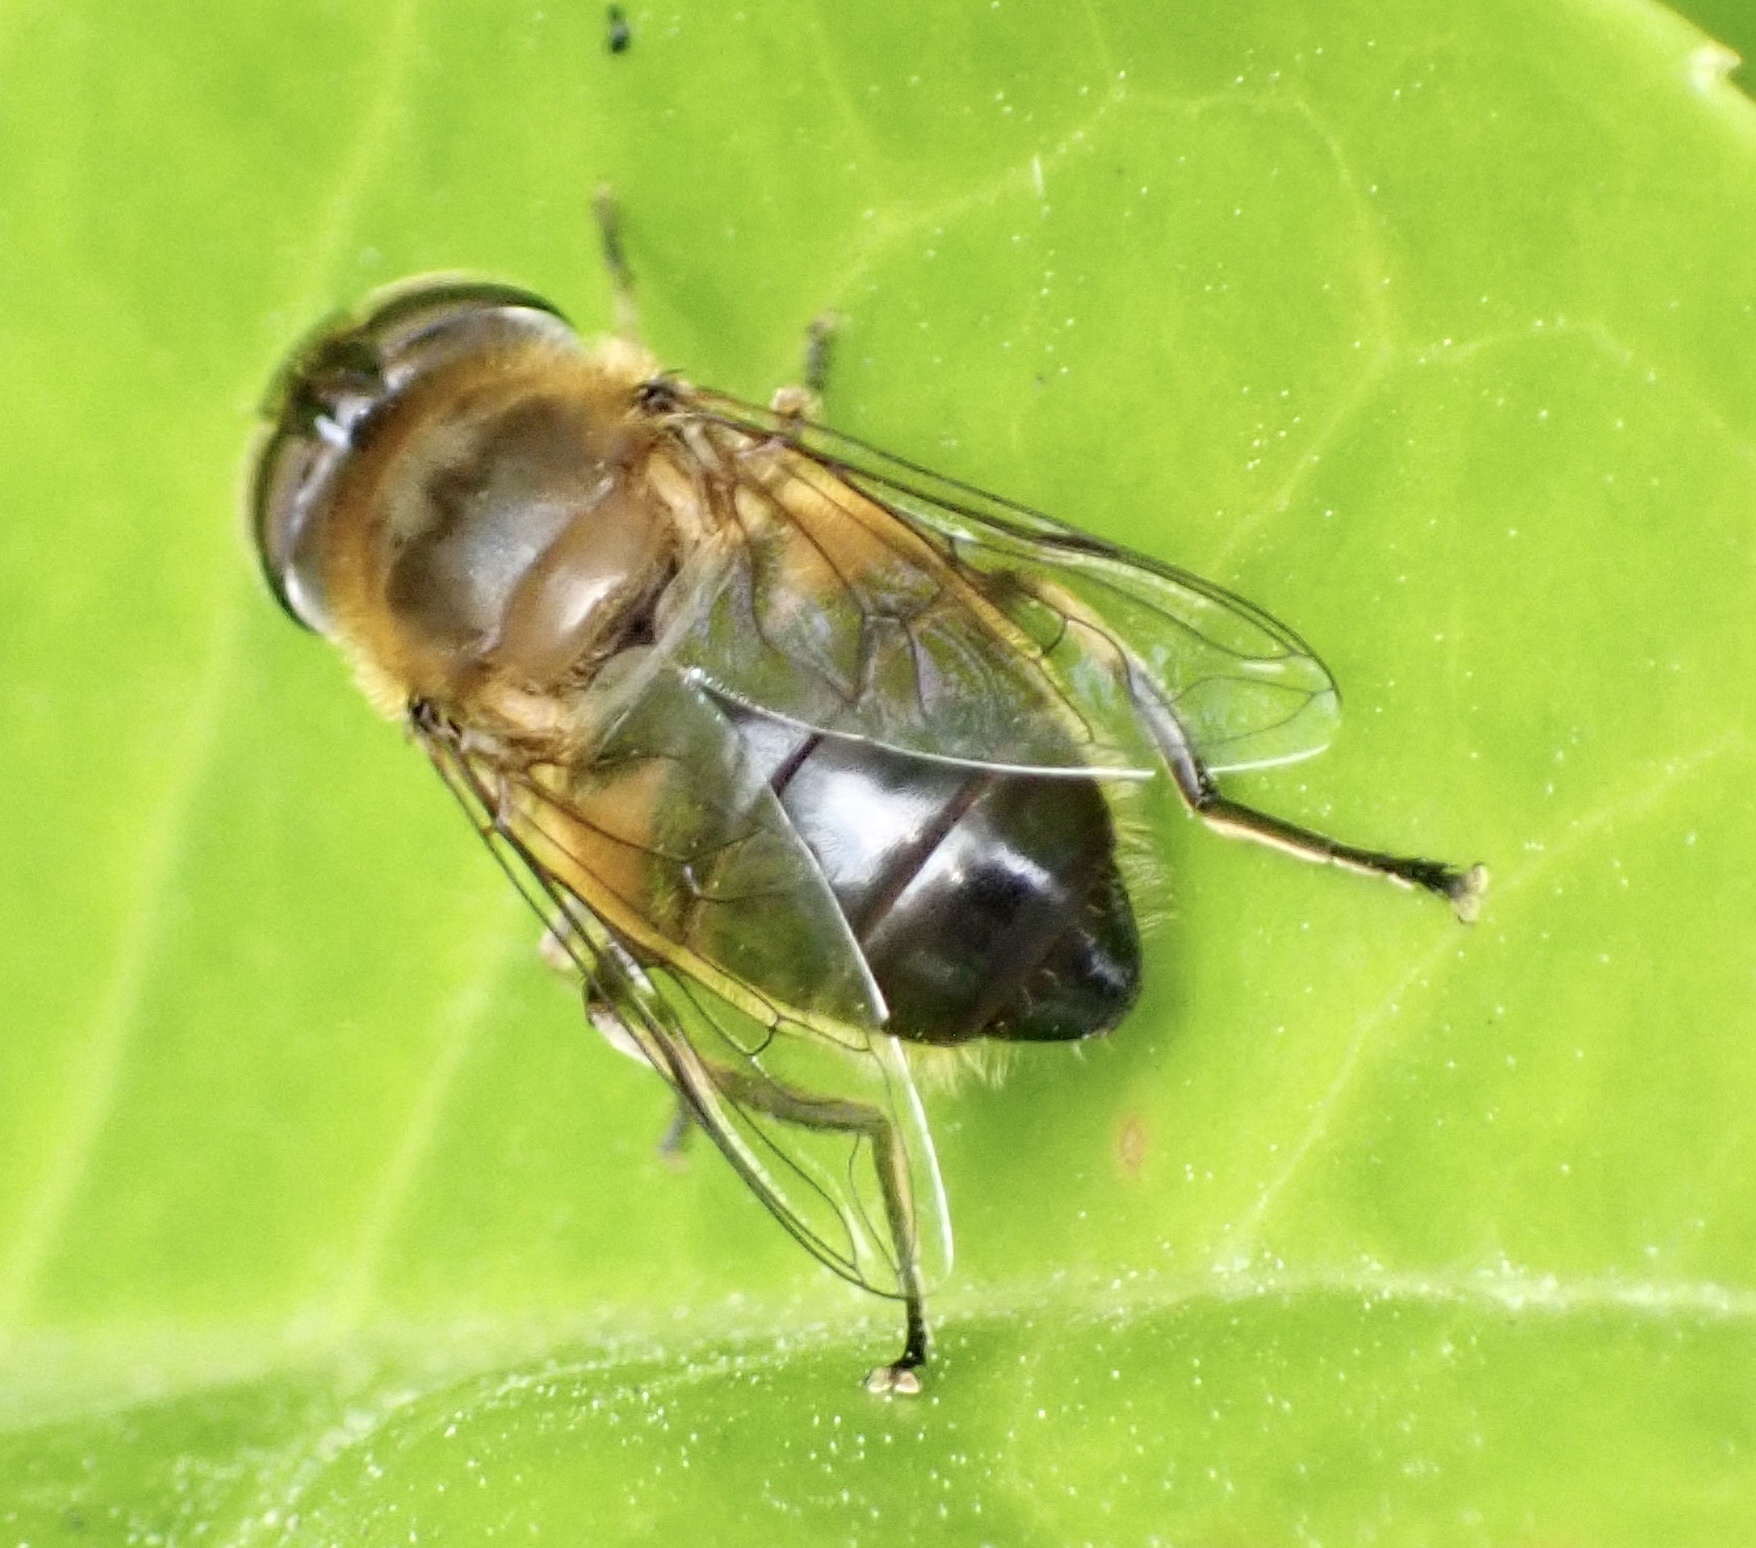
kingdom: Animalia
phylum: Arthropoda
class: Insecta
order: Diptera
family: Syrphidae
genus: Eristalis
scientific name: Eristalis pertinax
